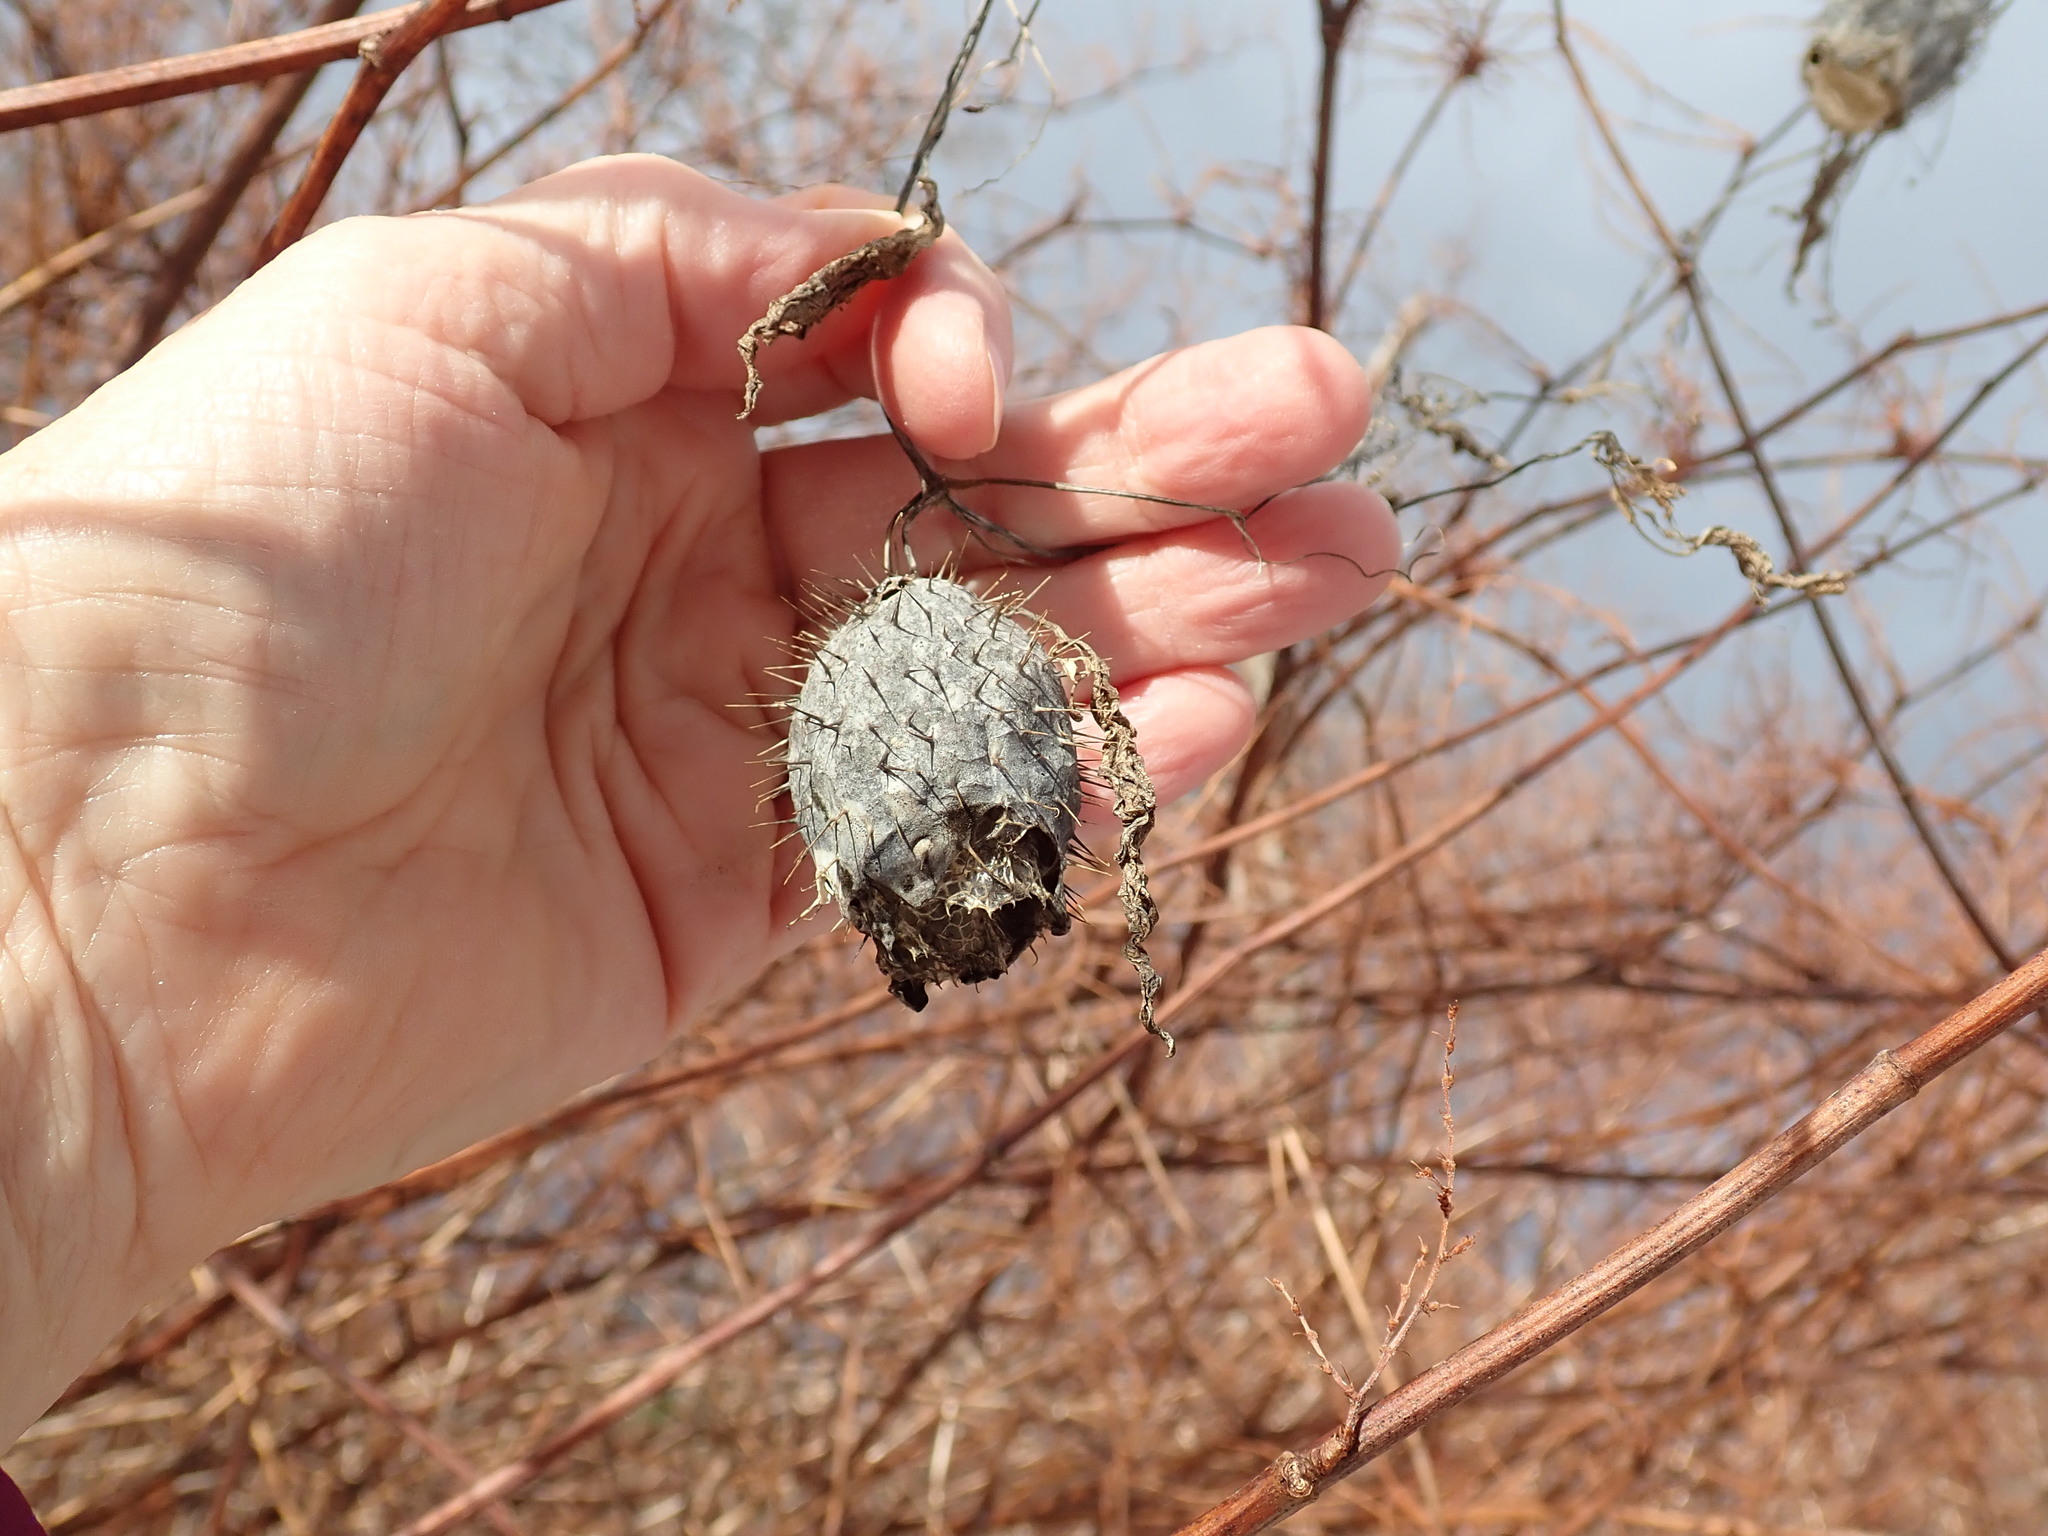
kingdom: Plantae
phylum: Tracheophyta
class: Magnoliopsida
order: Cucurbitales
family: Cucurbitaceae
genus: Echinocystis
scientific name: Echinocystis lobata
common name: Wild cucumber
